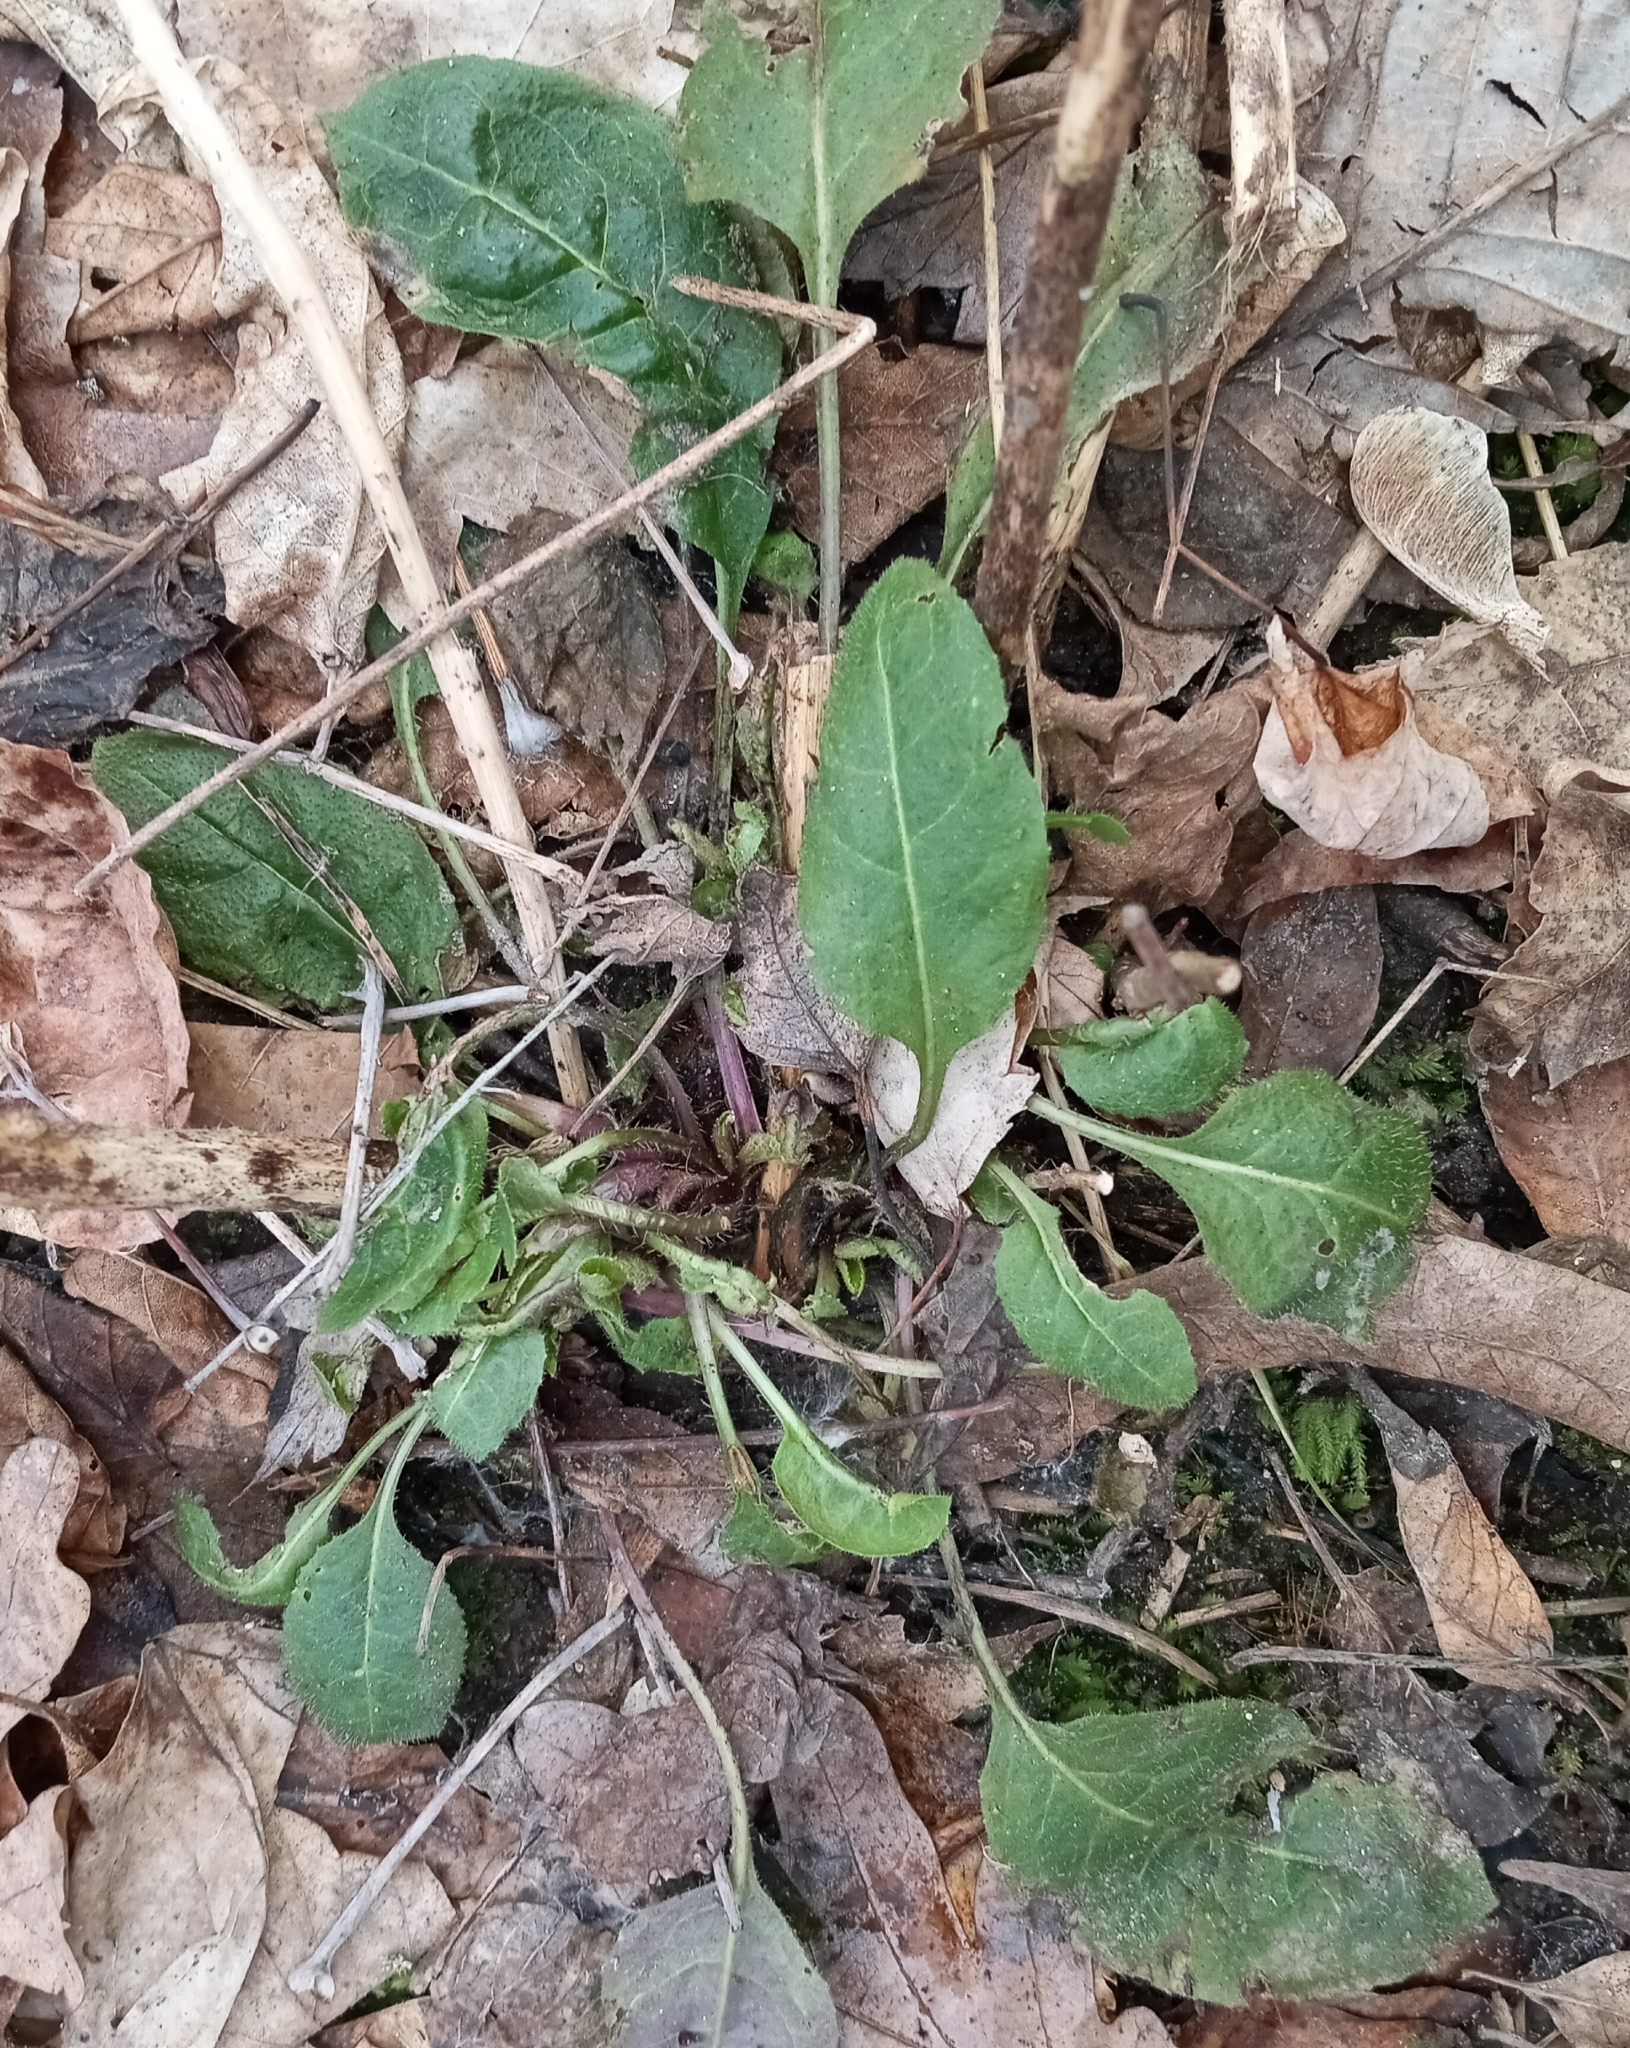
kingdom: Plantae
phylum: Tracheophyta
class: Magnoliopsida
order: Brassicales
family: Brassicaceae
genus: Hesperis
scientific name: Hesperis matronalis
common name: Dame's-violet
